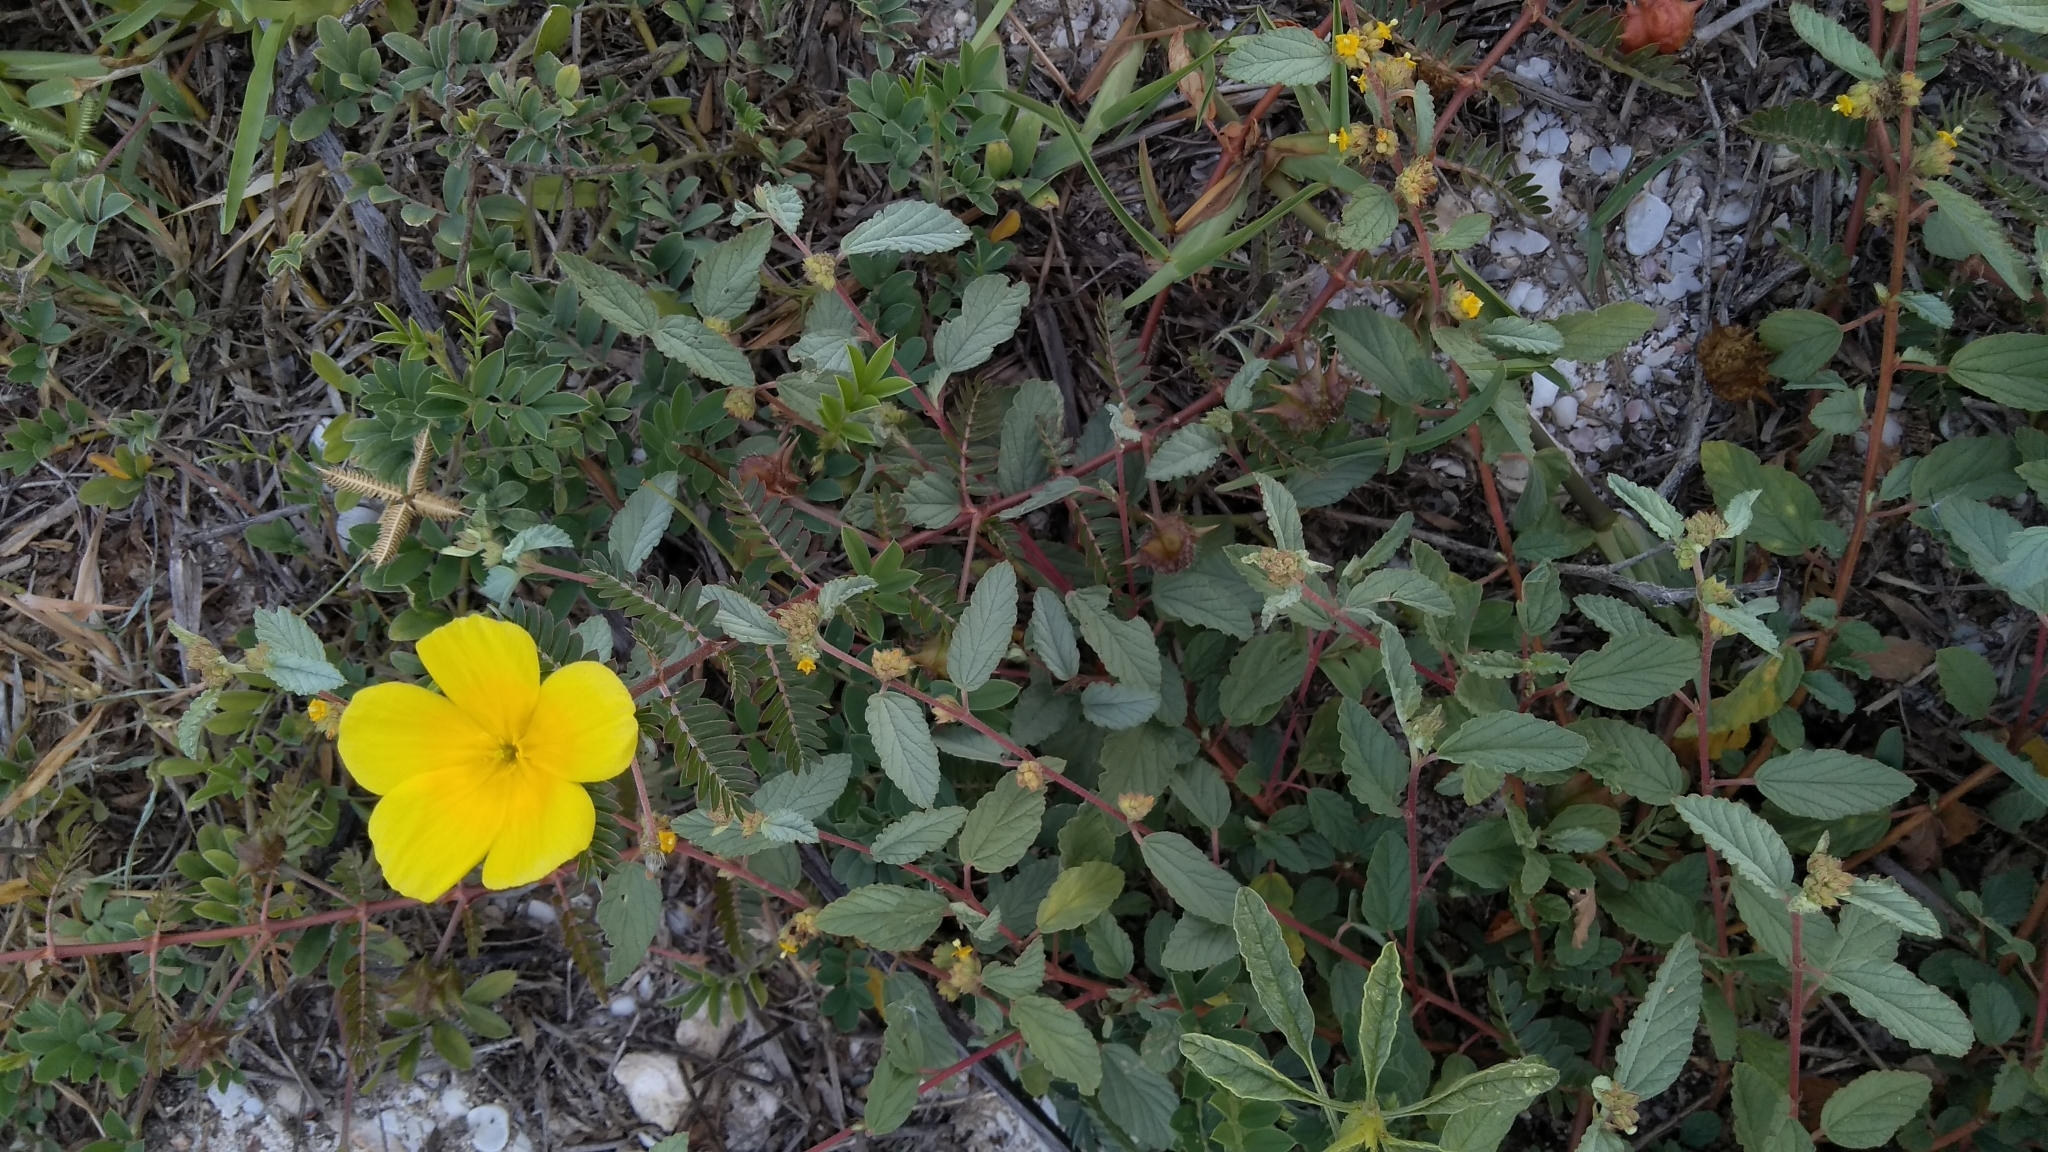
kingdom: Plantae
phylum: Tracheophyta
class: Magnoliopsida
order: Zygophyllales
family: Zygophyllaceae
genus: Tribulus
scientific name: Tribulus cistoides
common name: Jamaican feverplant
